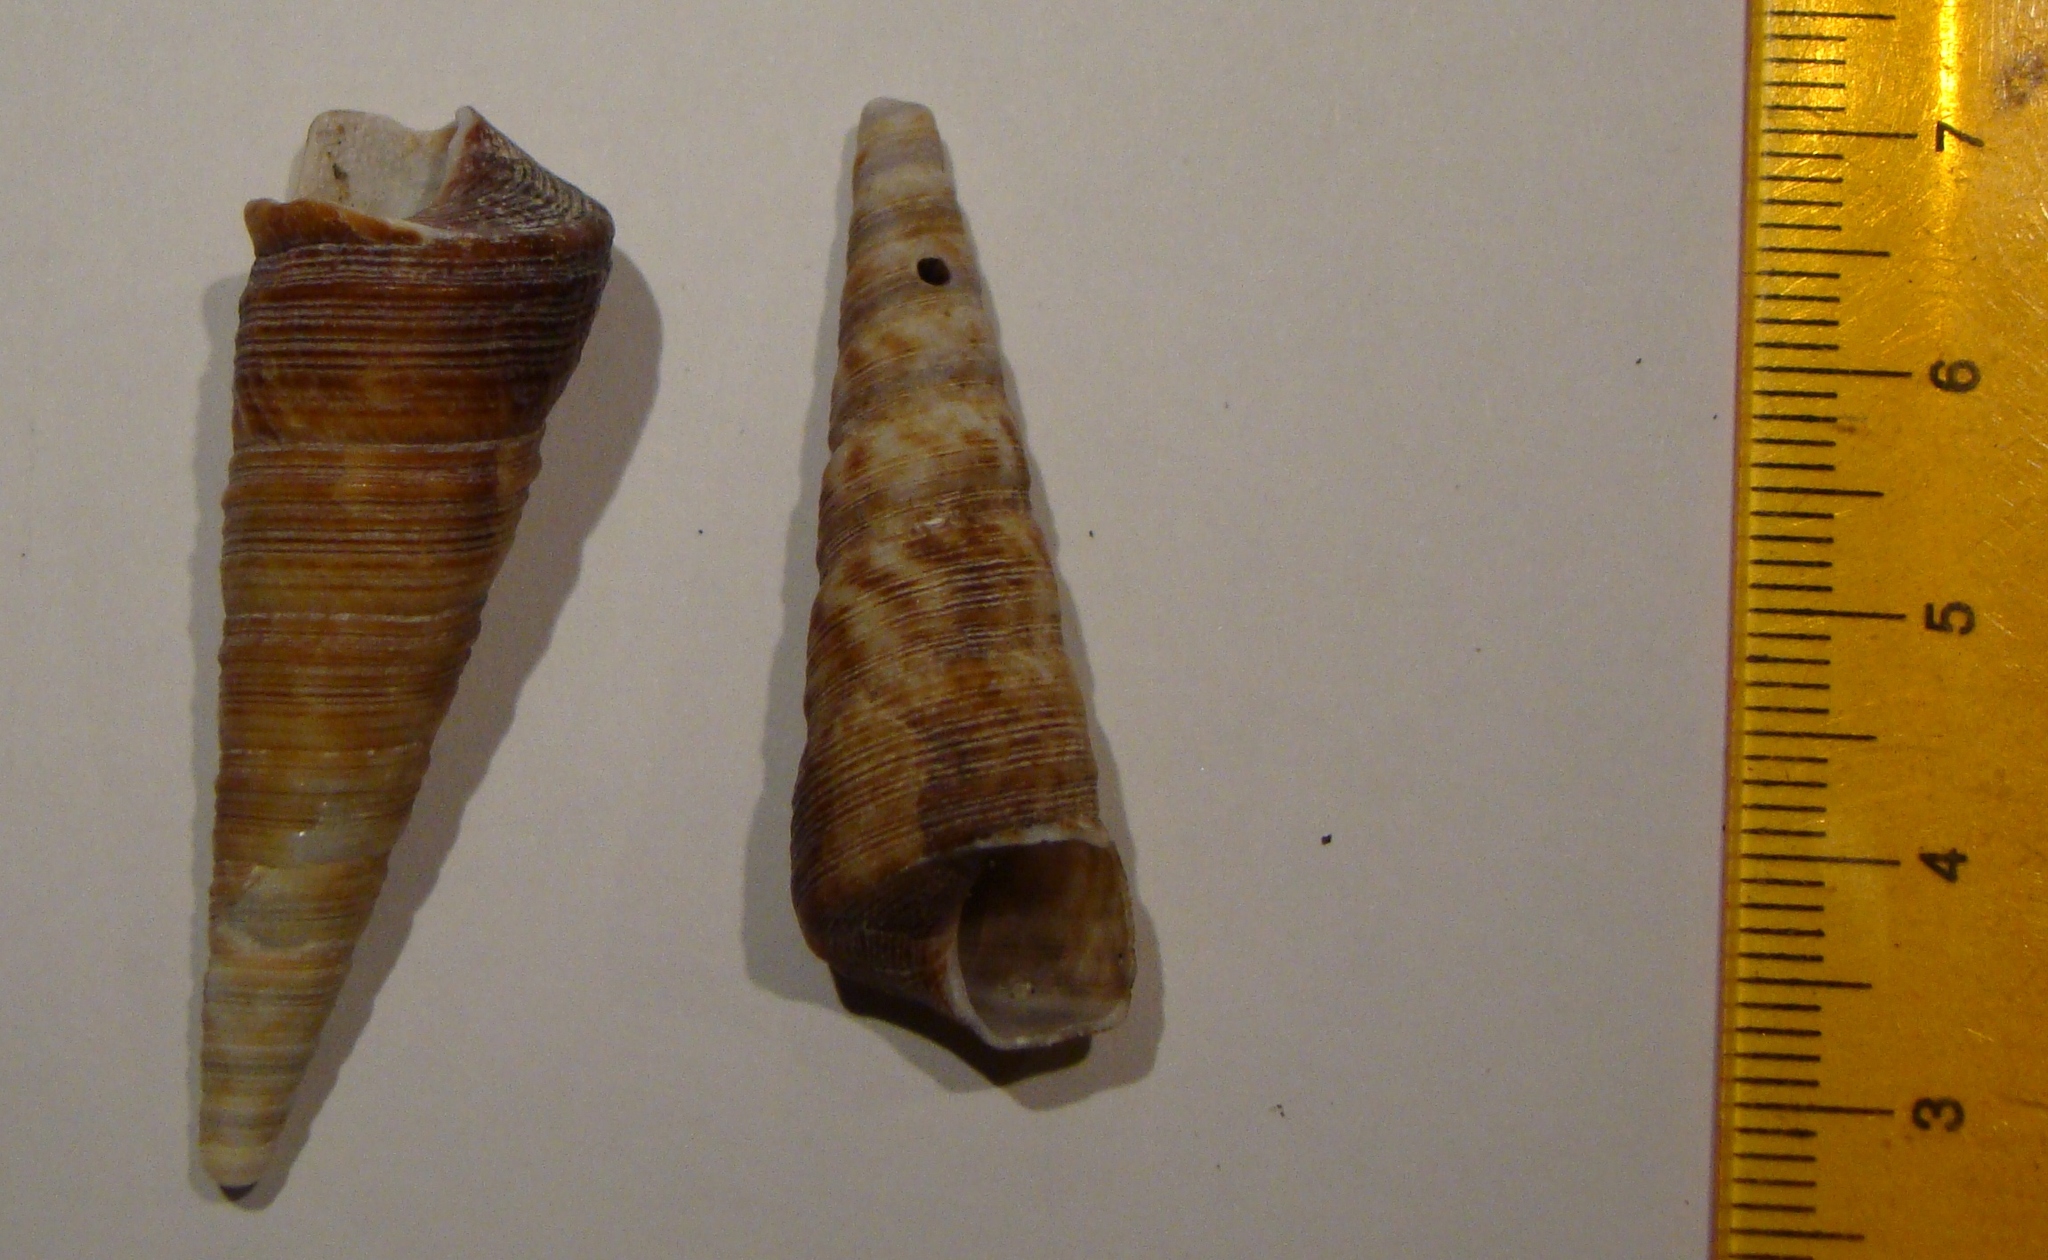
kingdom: Animalia
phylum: Mollusca
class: Gastropoda
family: Turritellidae
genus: Maoricolpus
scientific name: Maoricolpus roseus
